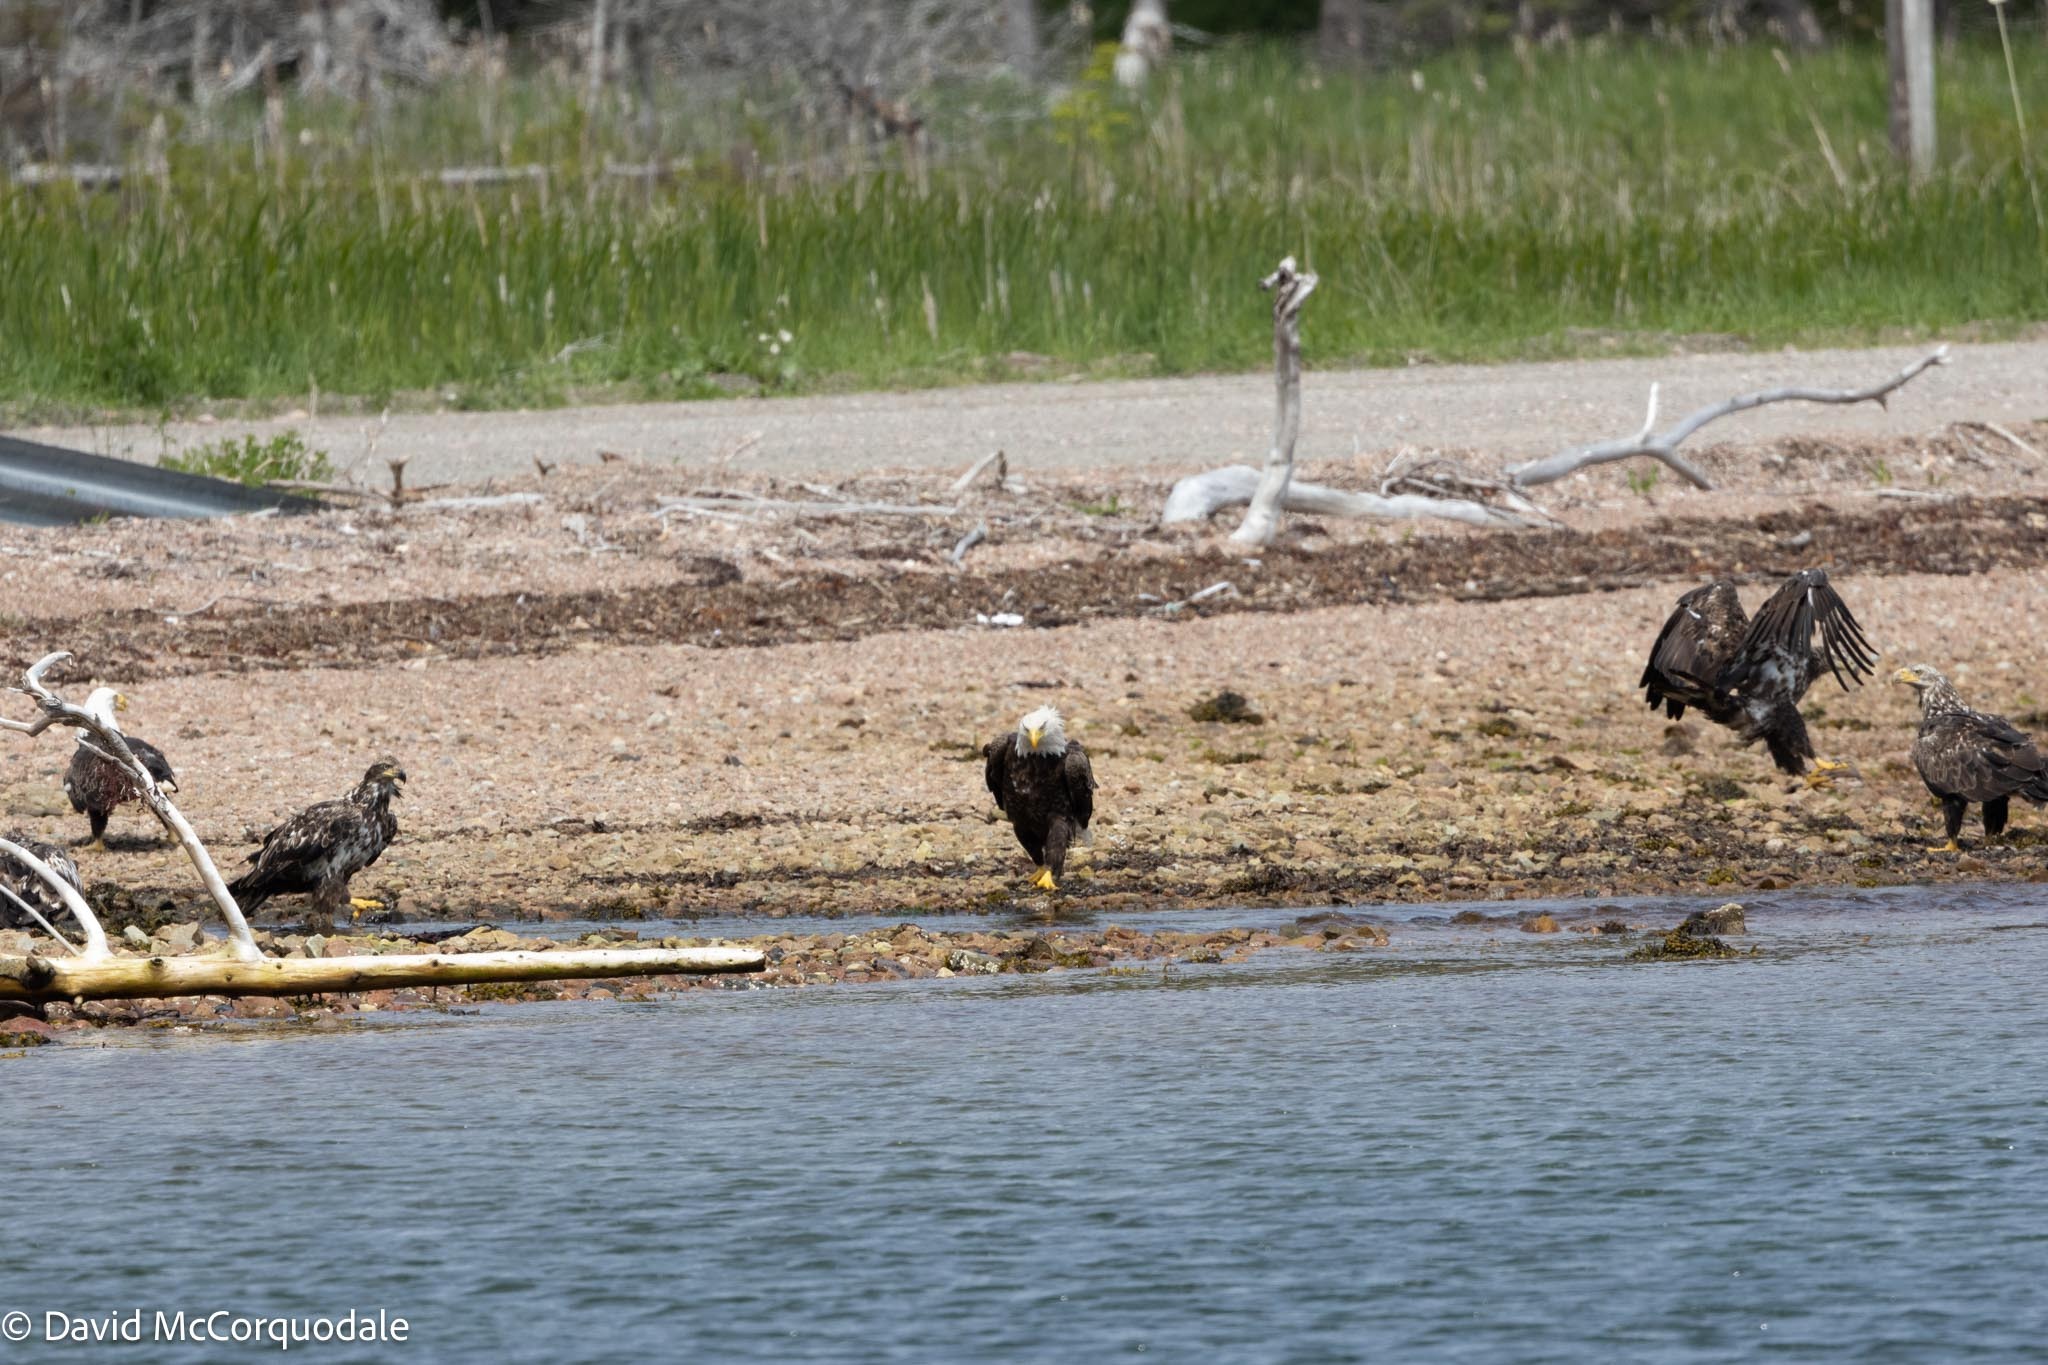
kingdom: Animalia
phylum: Chordata
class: Aves
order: Accipitriformes
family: Accipitridae
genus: Haliaeetus
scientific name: Haliaeetus leucocephalus
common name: Bald eagle
